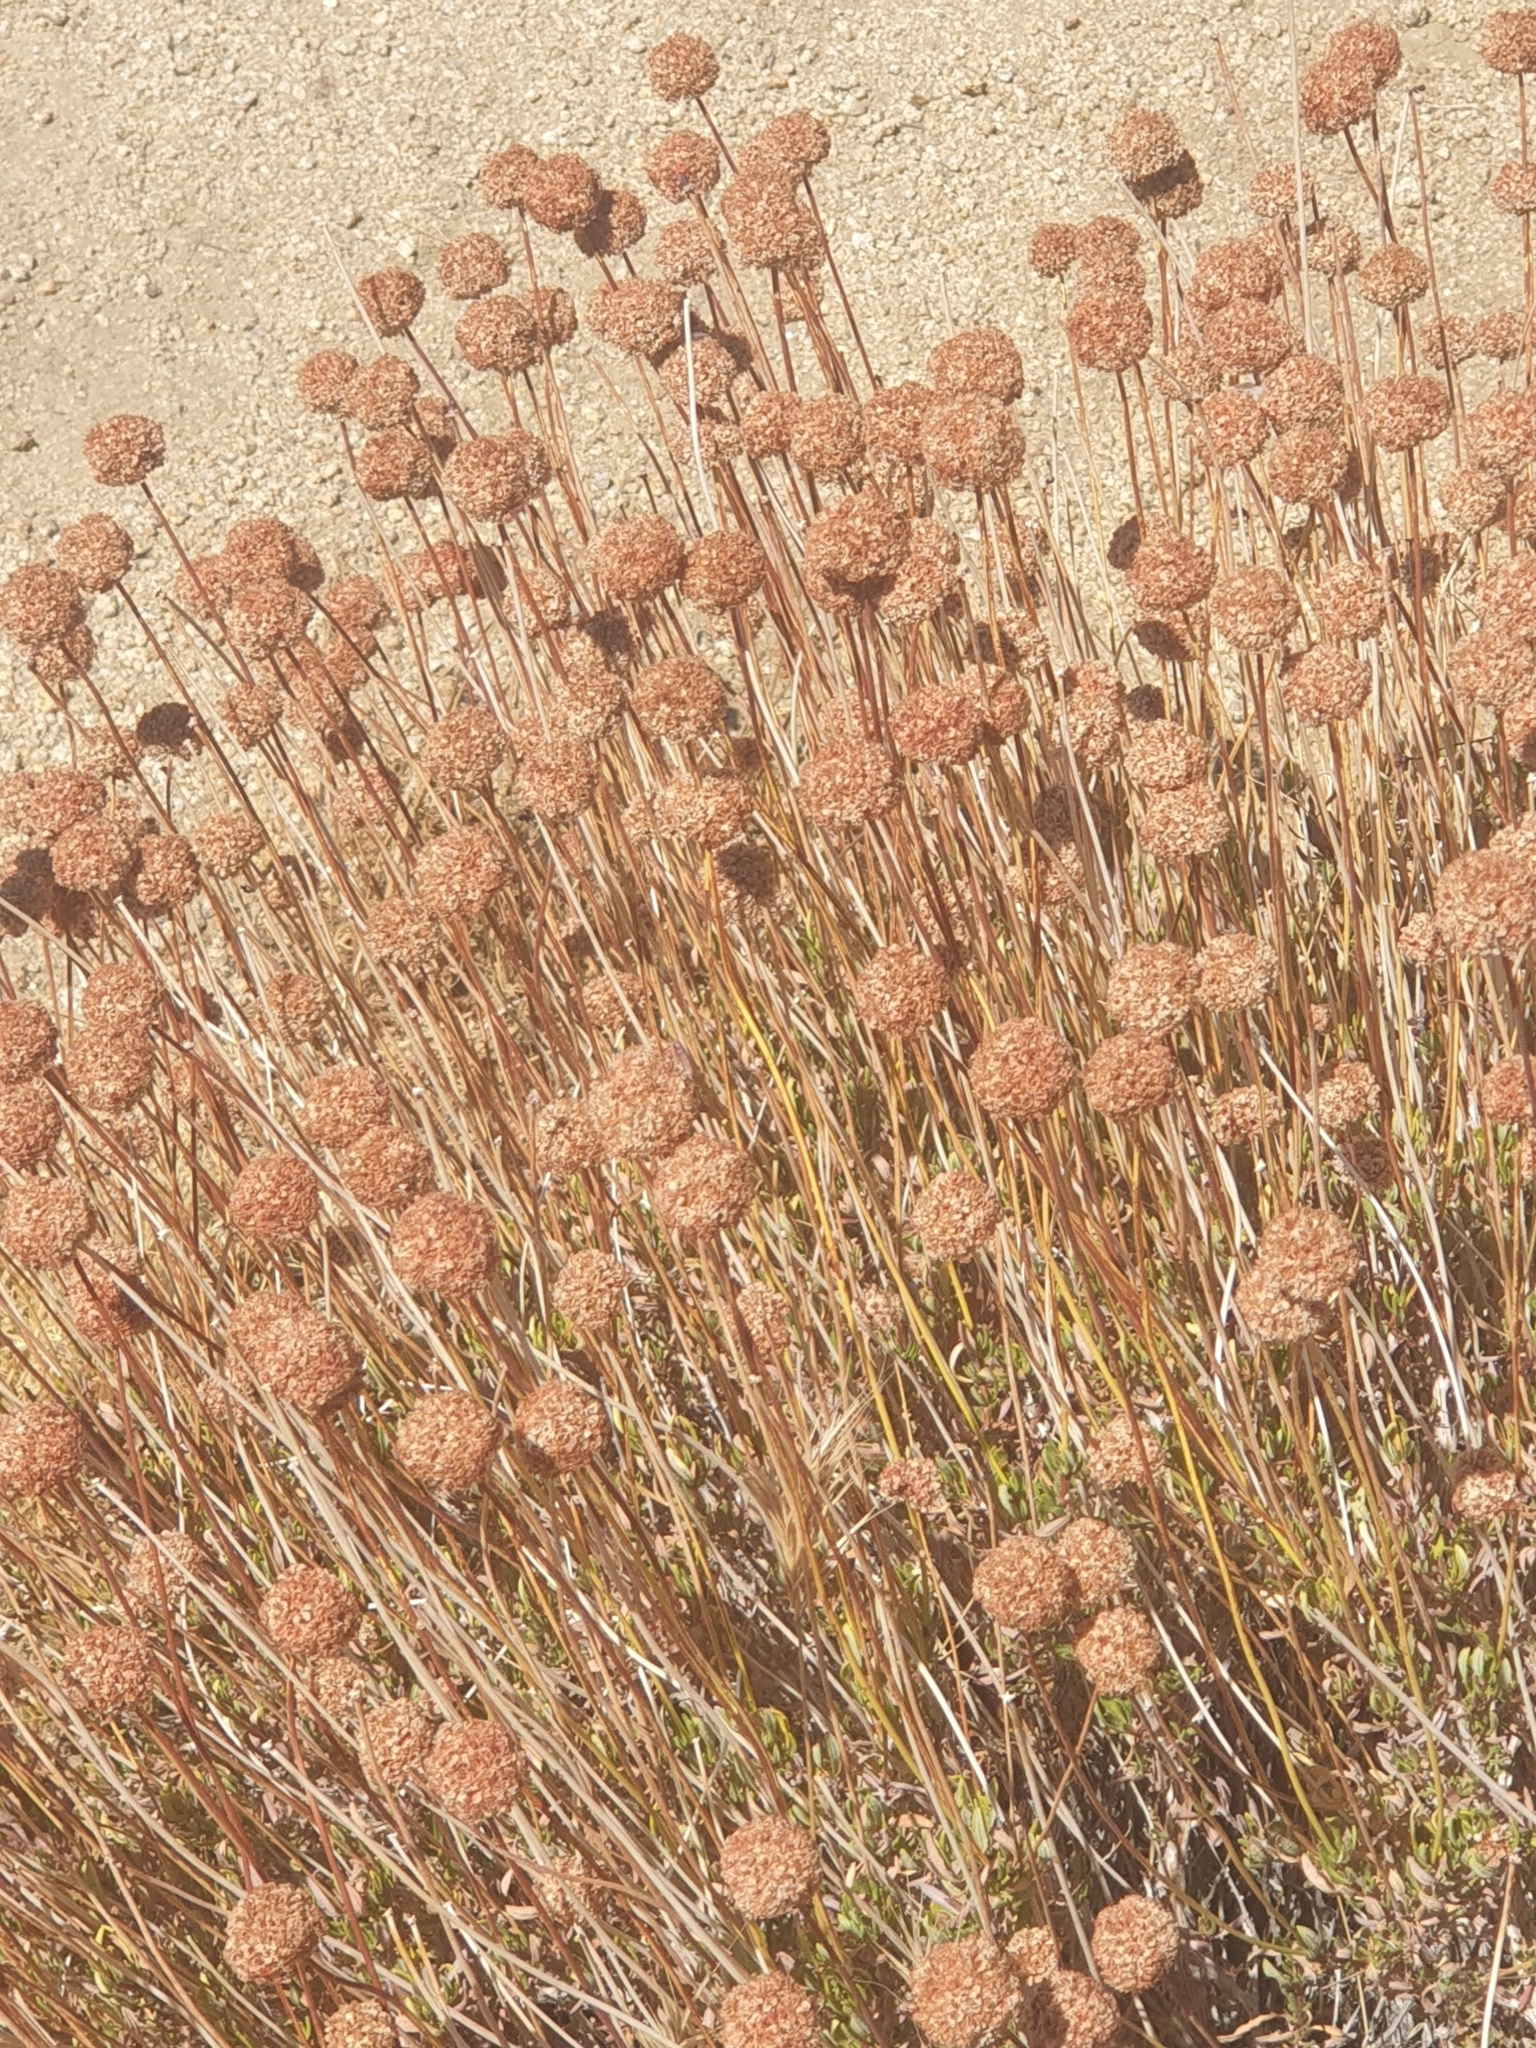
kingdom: Plantae
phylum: Tracheophyta
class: Magnoliopsida
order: Caryophyllales
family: Polygonaceae
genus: Eriogonum
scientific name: Eriogonum fasciculatum
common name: California wild buckwheat
